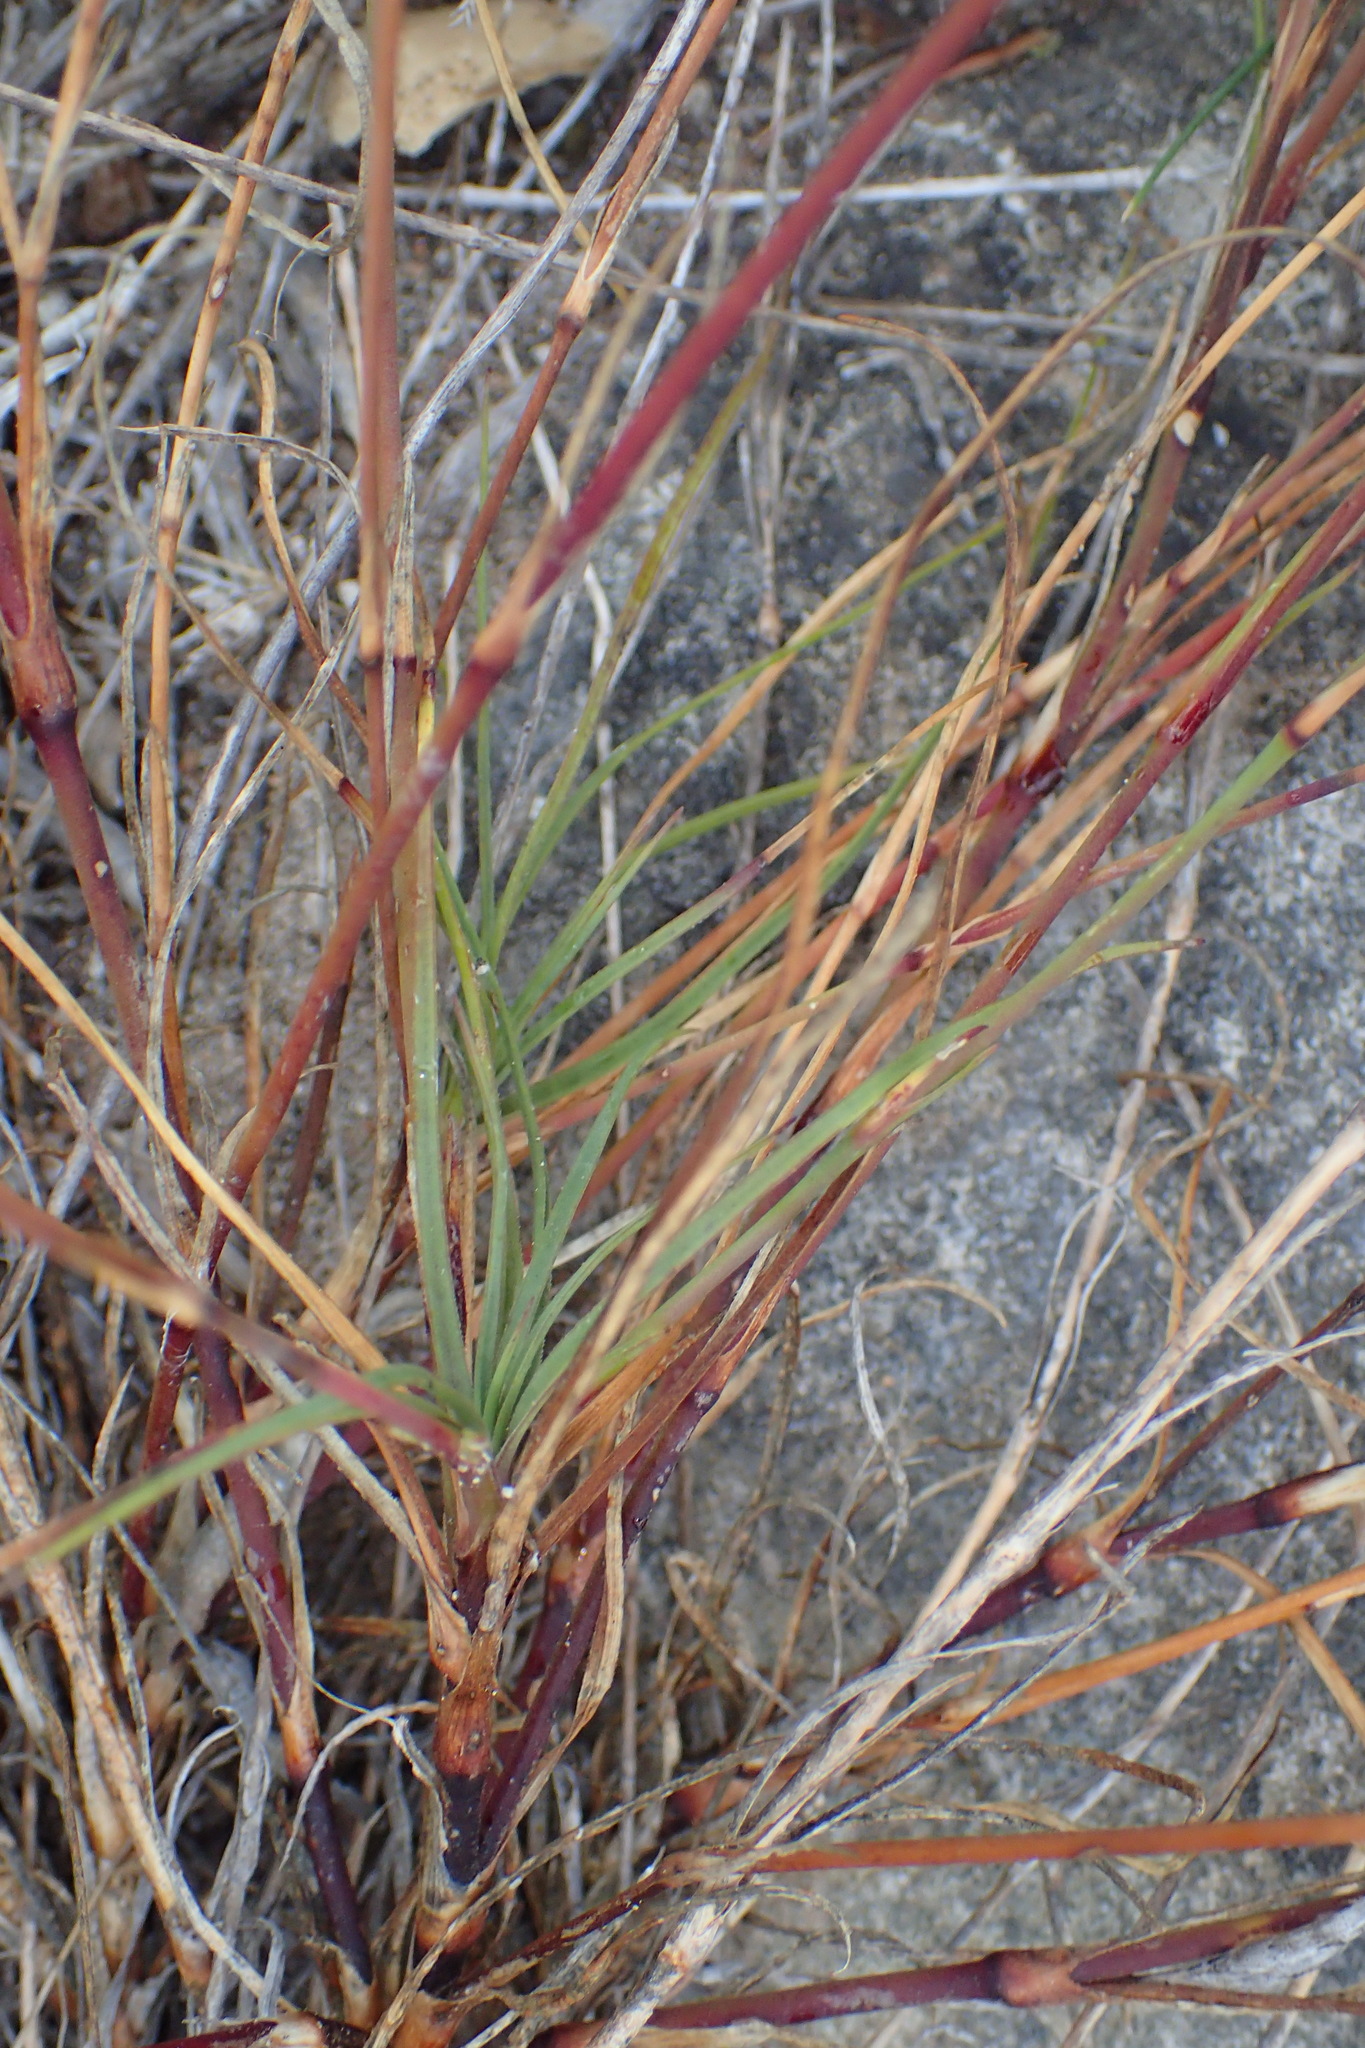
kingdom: Plantae
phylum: Tracheophyta
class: Magnoliopsida
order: Caryophyllales
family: Caryophyllaceae
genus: Dianthus
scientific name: Dianthus albens
